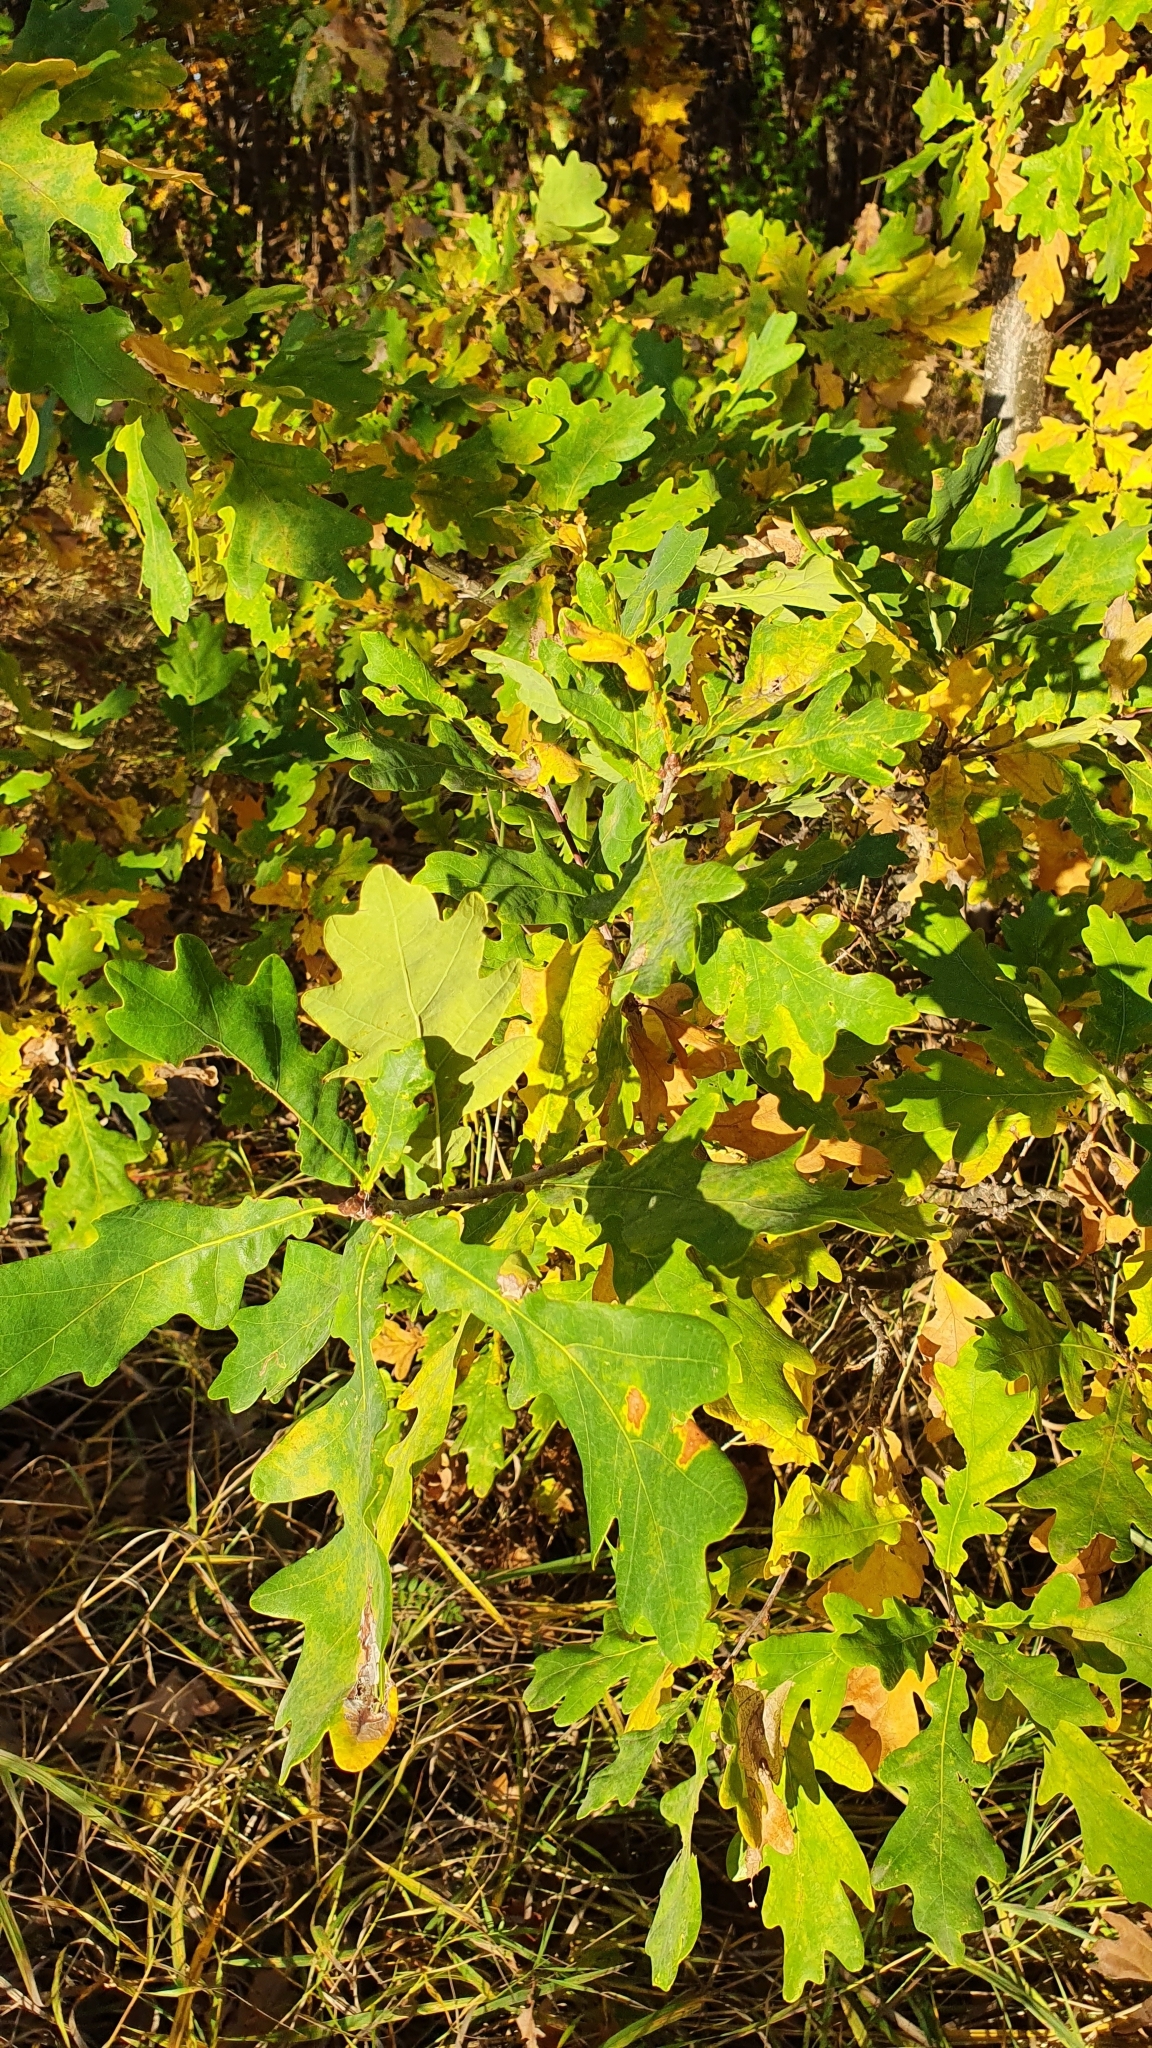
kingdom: Plantae
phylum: Tracheophyta
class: Magnoliopsida
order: Fagales
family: Fagaceae
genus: Quercus
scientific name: Quercus robur
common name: Pedunculate oak
